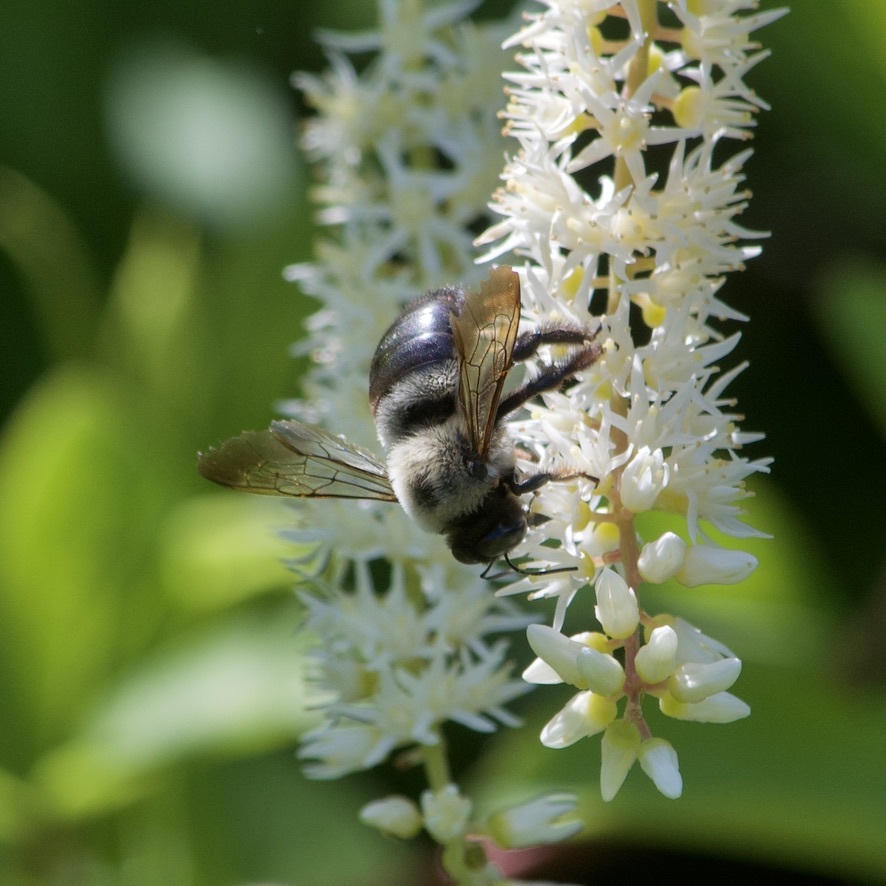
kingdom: Animalia
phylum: Arthropoda
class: Insecta
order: Hymenoptera
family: Apidae
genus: Xylocopa
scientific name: Xylocopa virginica
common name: Carpenter bee
